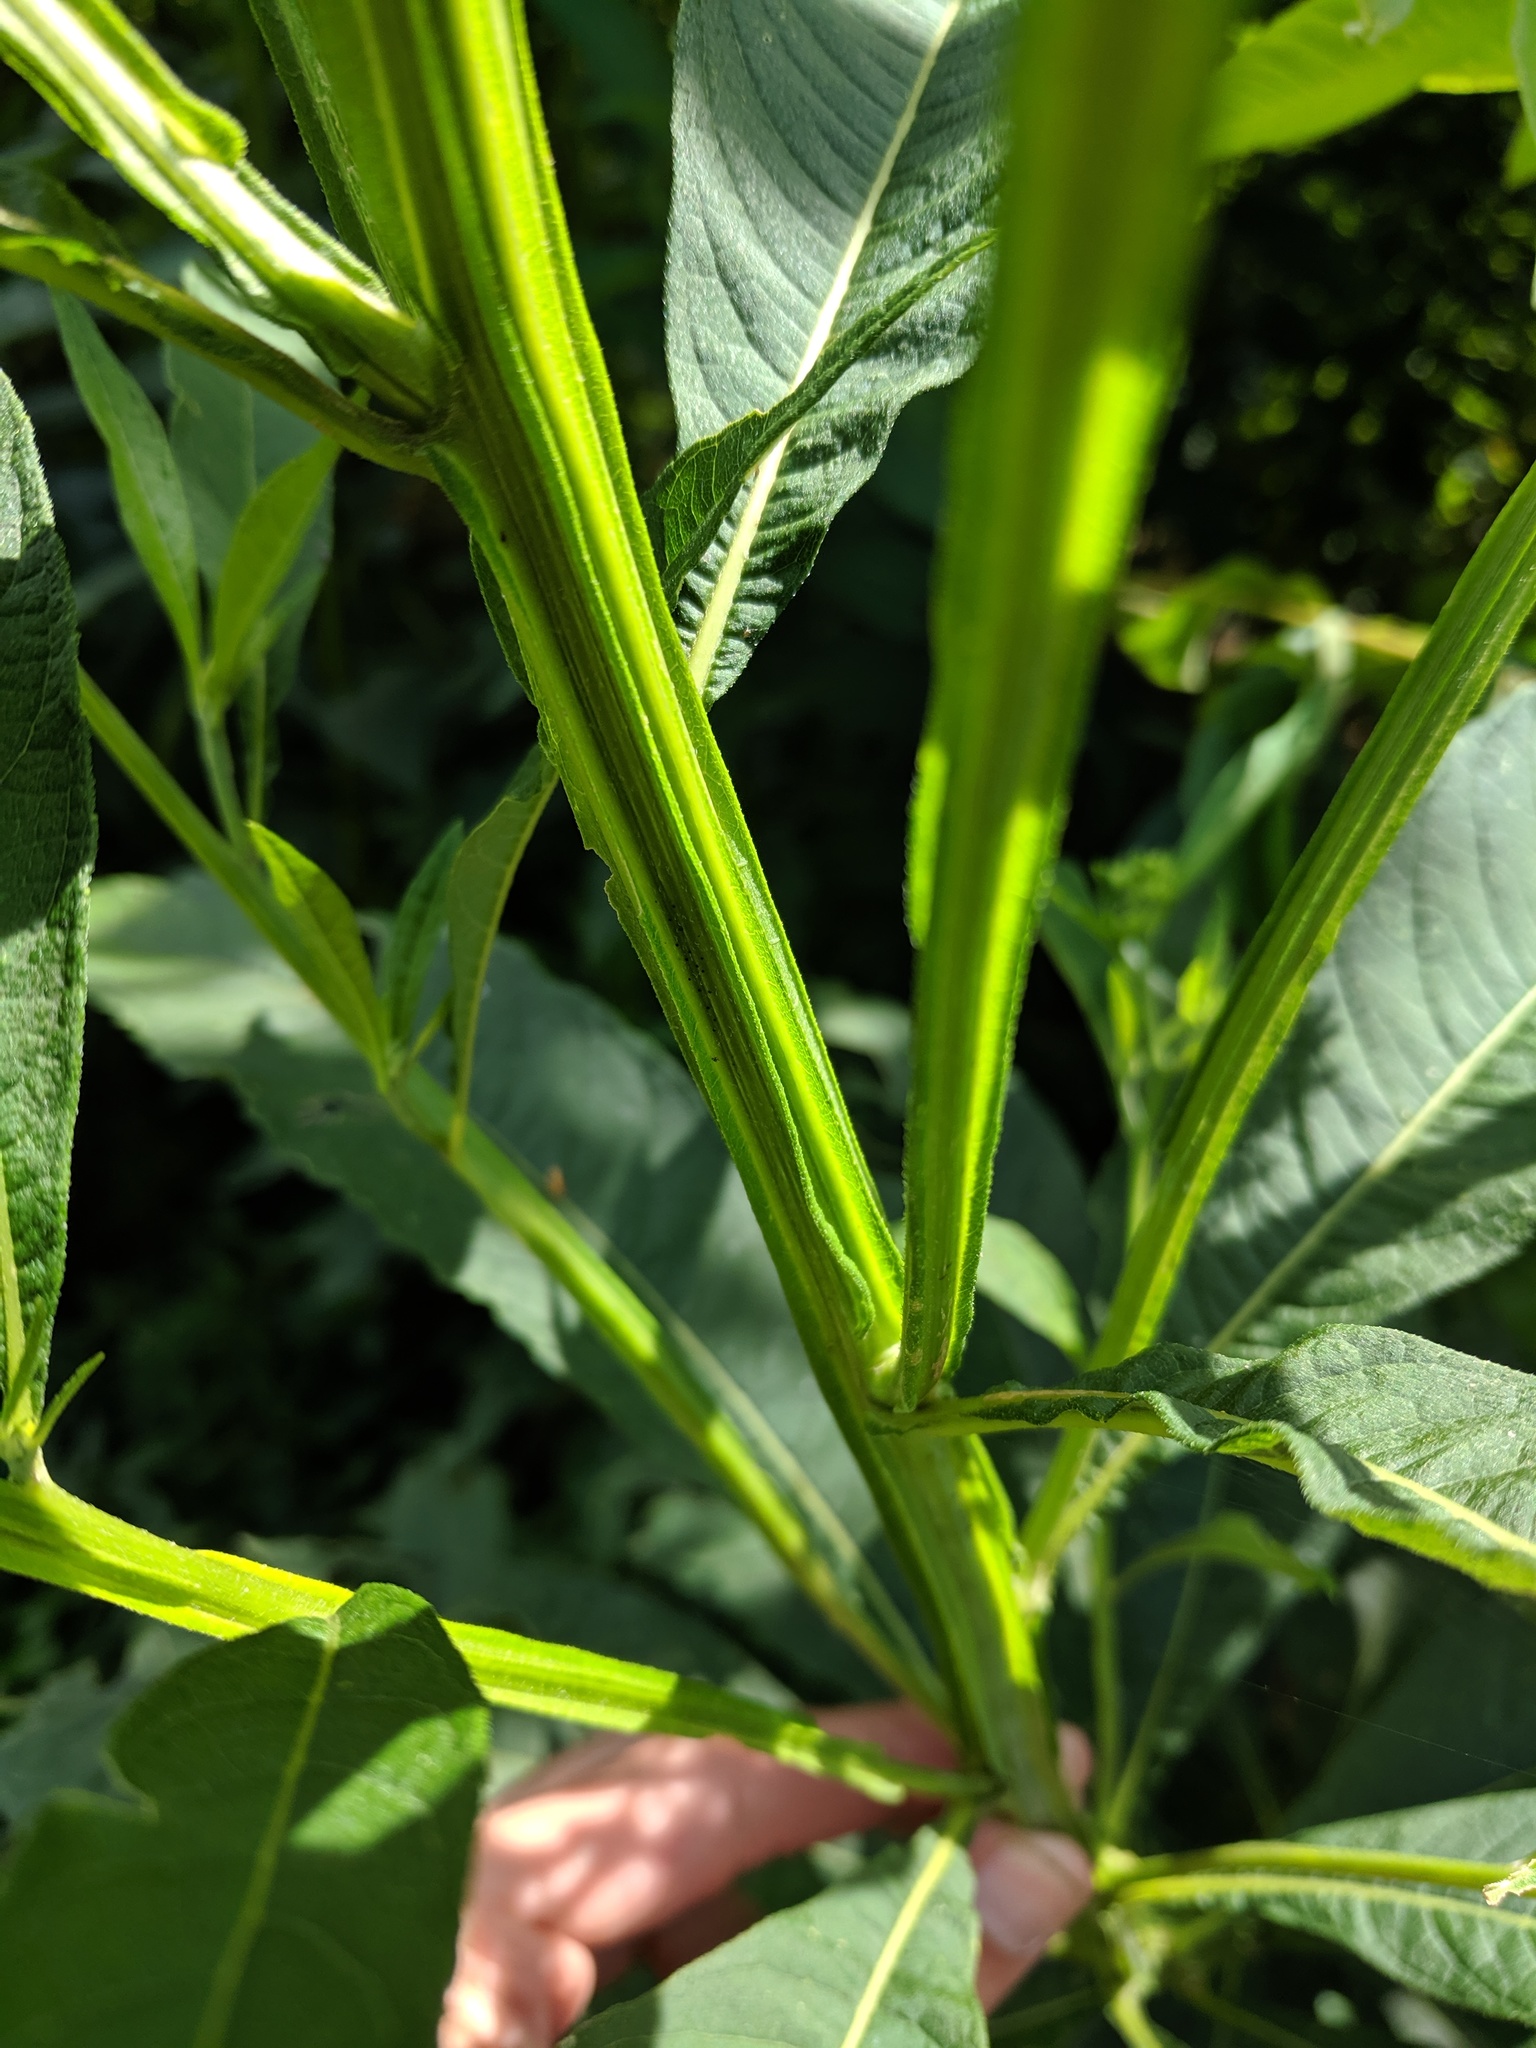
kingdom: Plantae
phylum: Tracheophyta
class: Magnoliopsida
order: Asterales
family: Asteraceae
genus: Verbesina
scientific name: Verbesina alternifolia
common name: Wingstem
